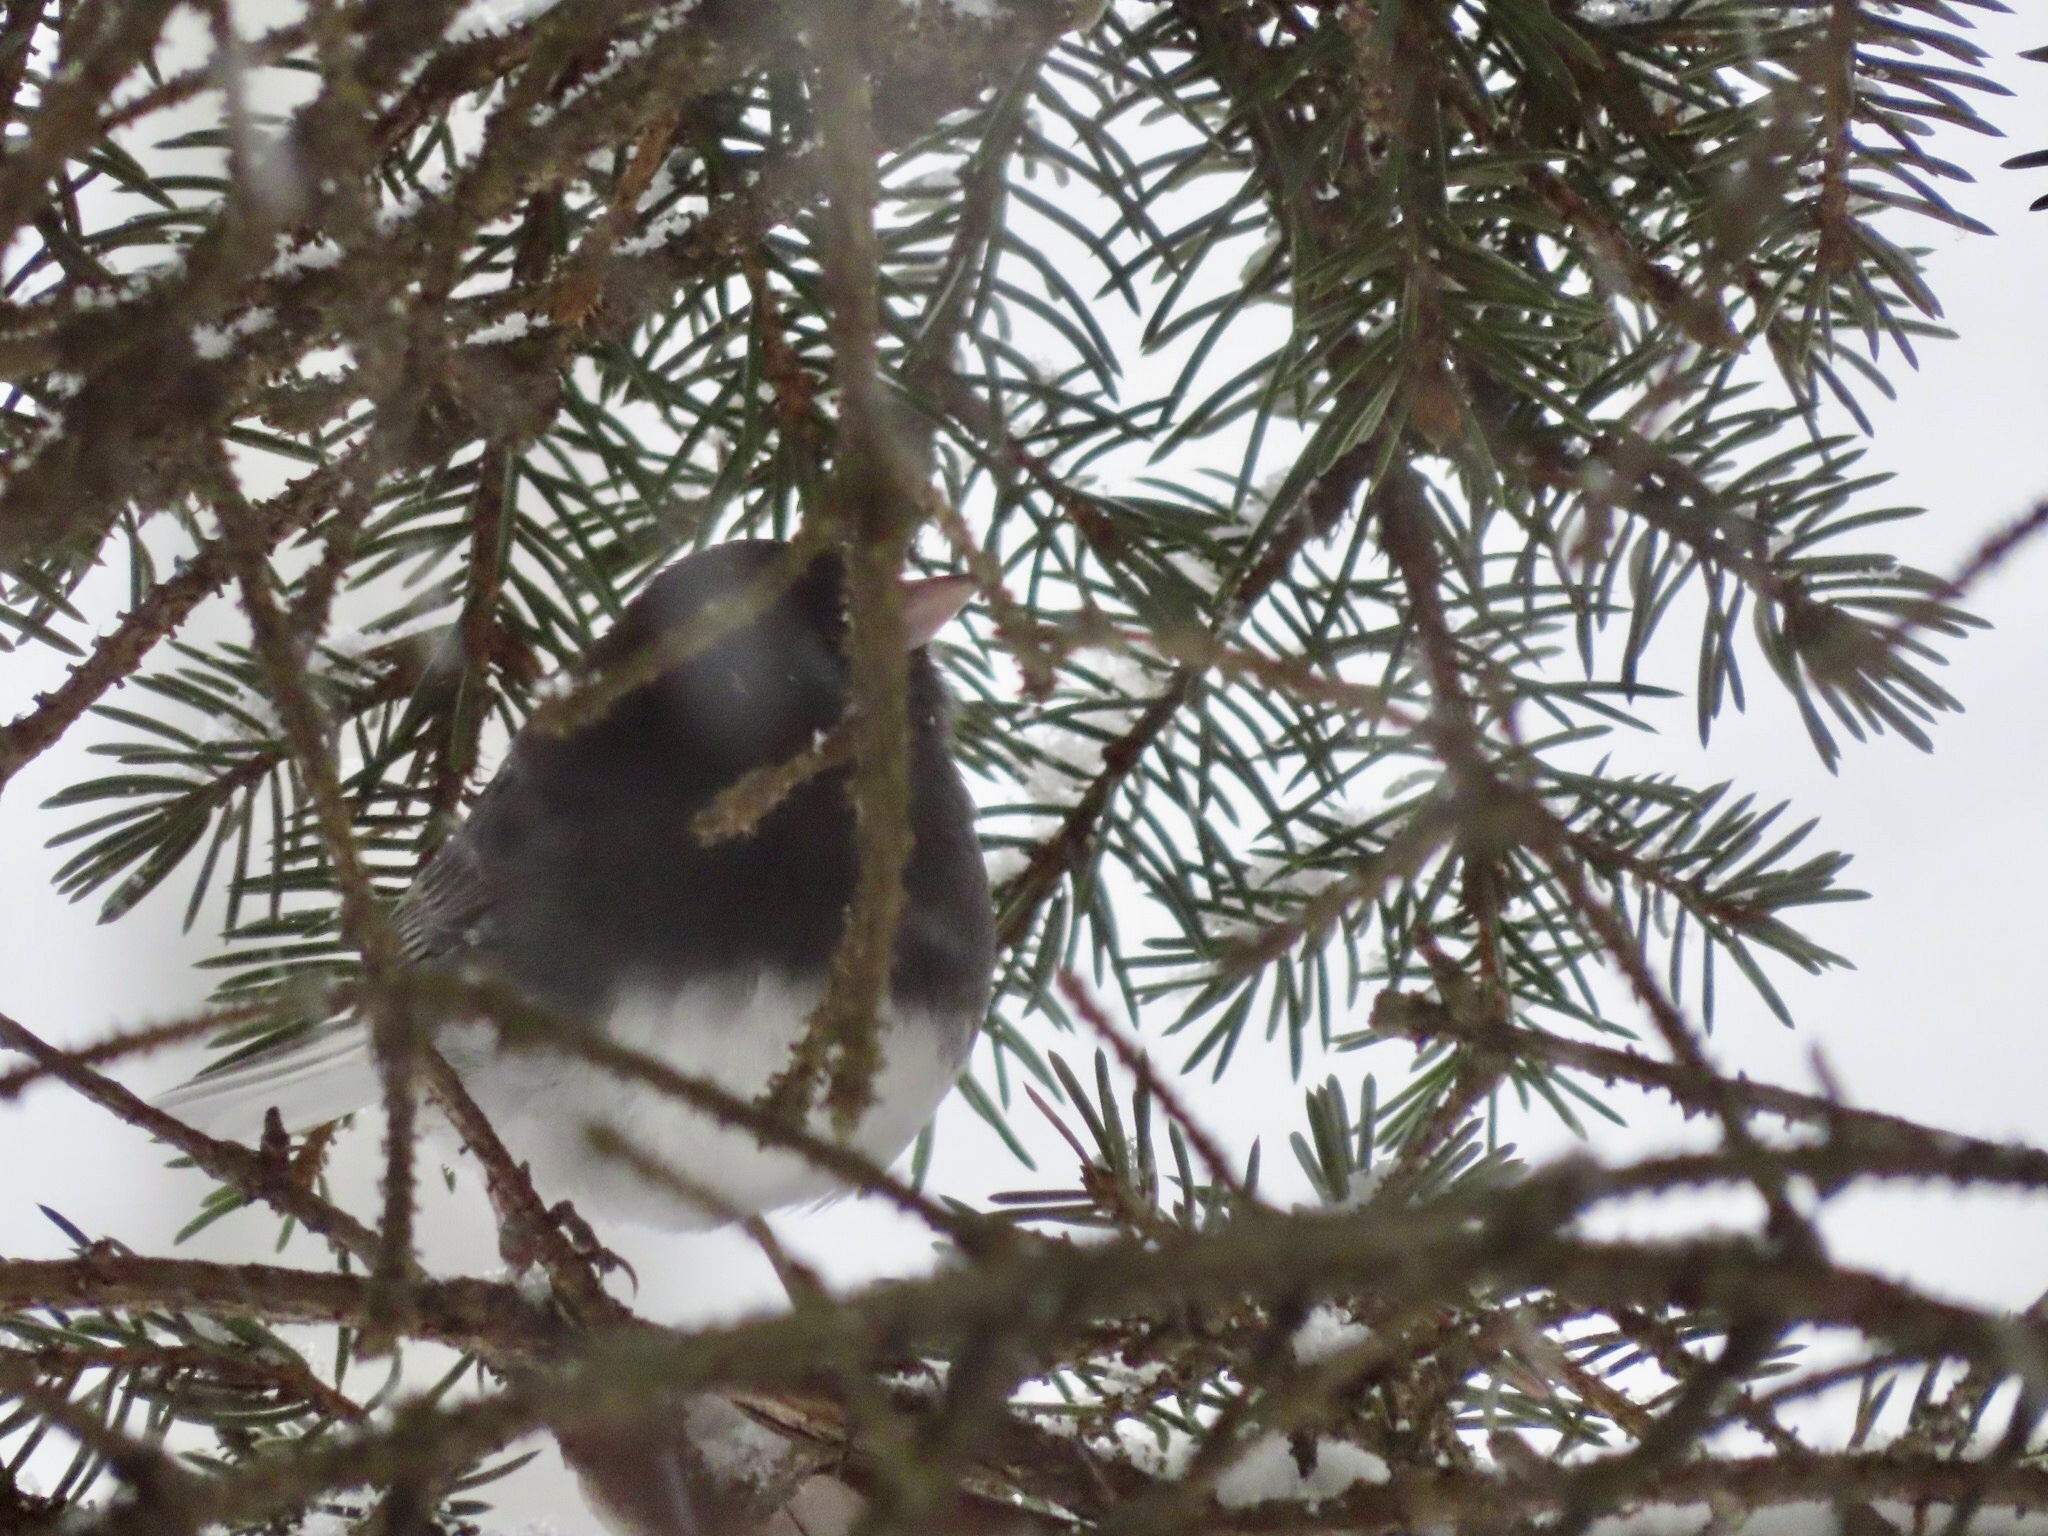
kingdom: Animalia
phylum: Chordata
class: Aves
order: Passeriformes
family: Passerellidae
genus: Junco
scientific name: Junco hyemalis
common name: Dark-eyed junco
